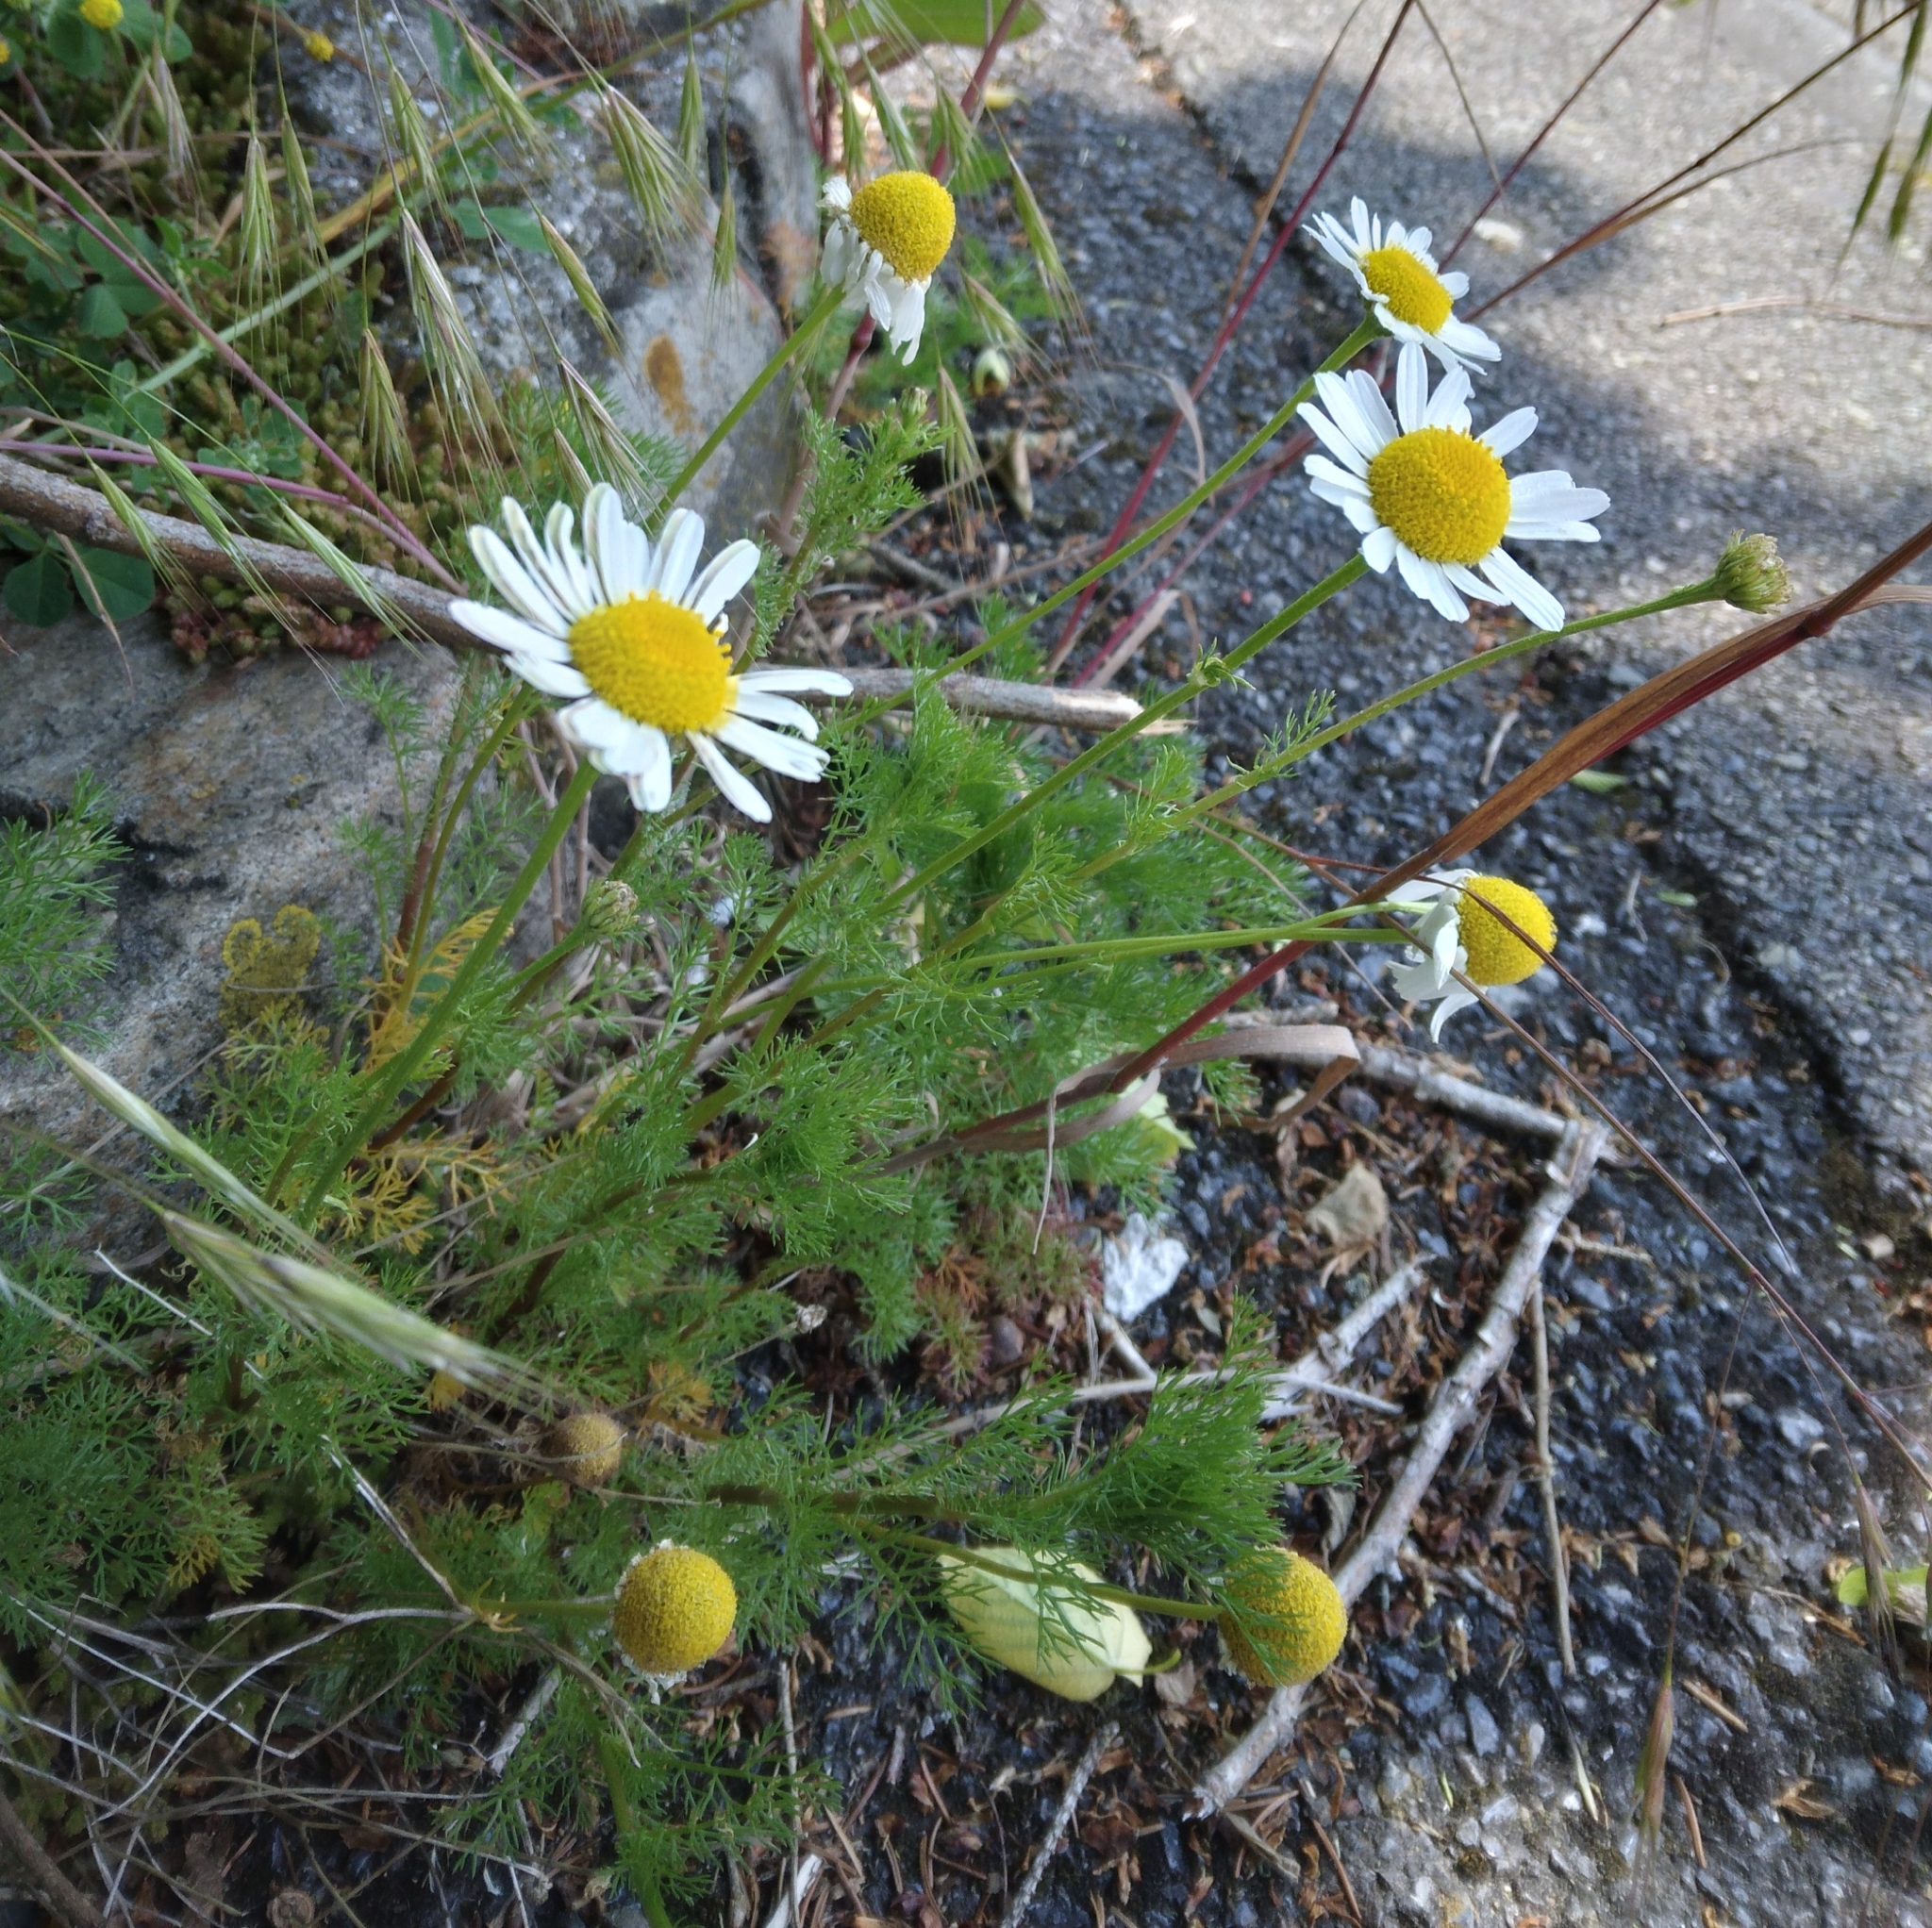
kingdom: Plantae
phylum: Tracheophyta
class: Magnoliopsida
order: Asterales
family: Asteraceae
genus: Tripleurospermum
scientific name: Tripleurospermum inodorum
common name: Scentless mayweed
